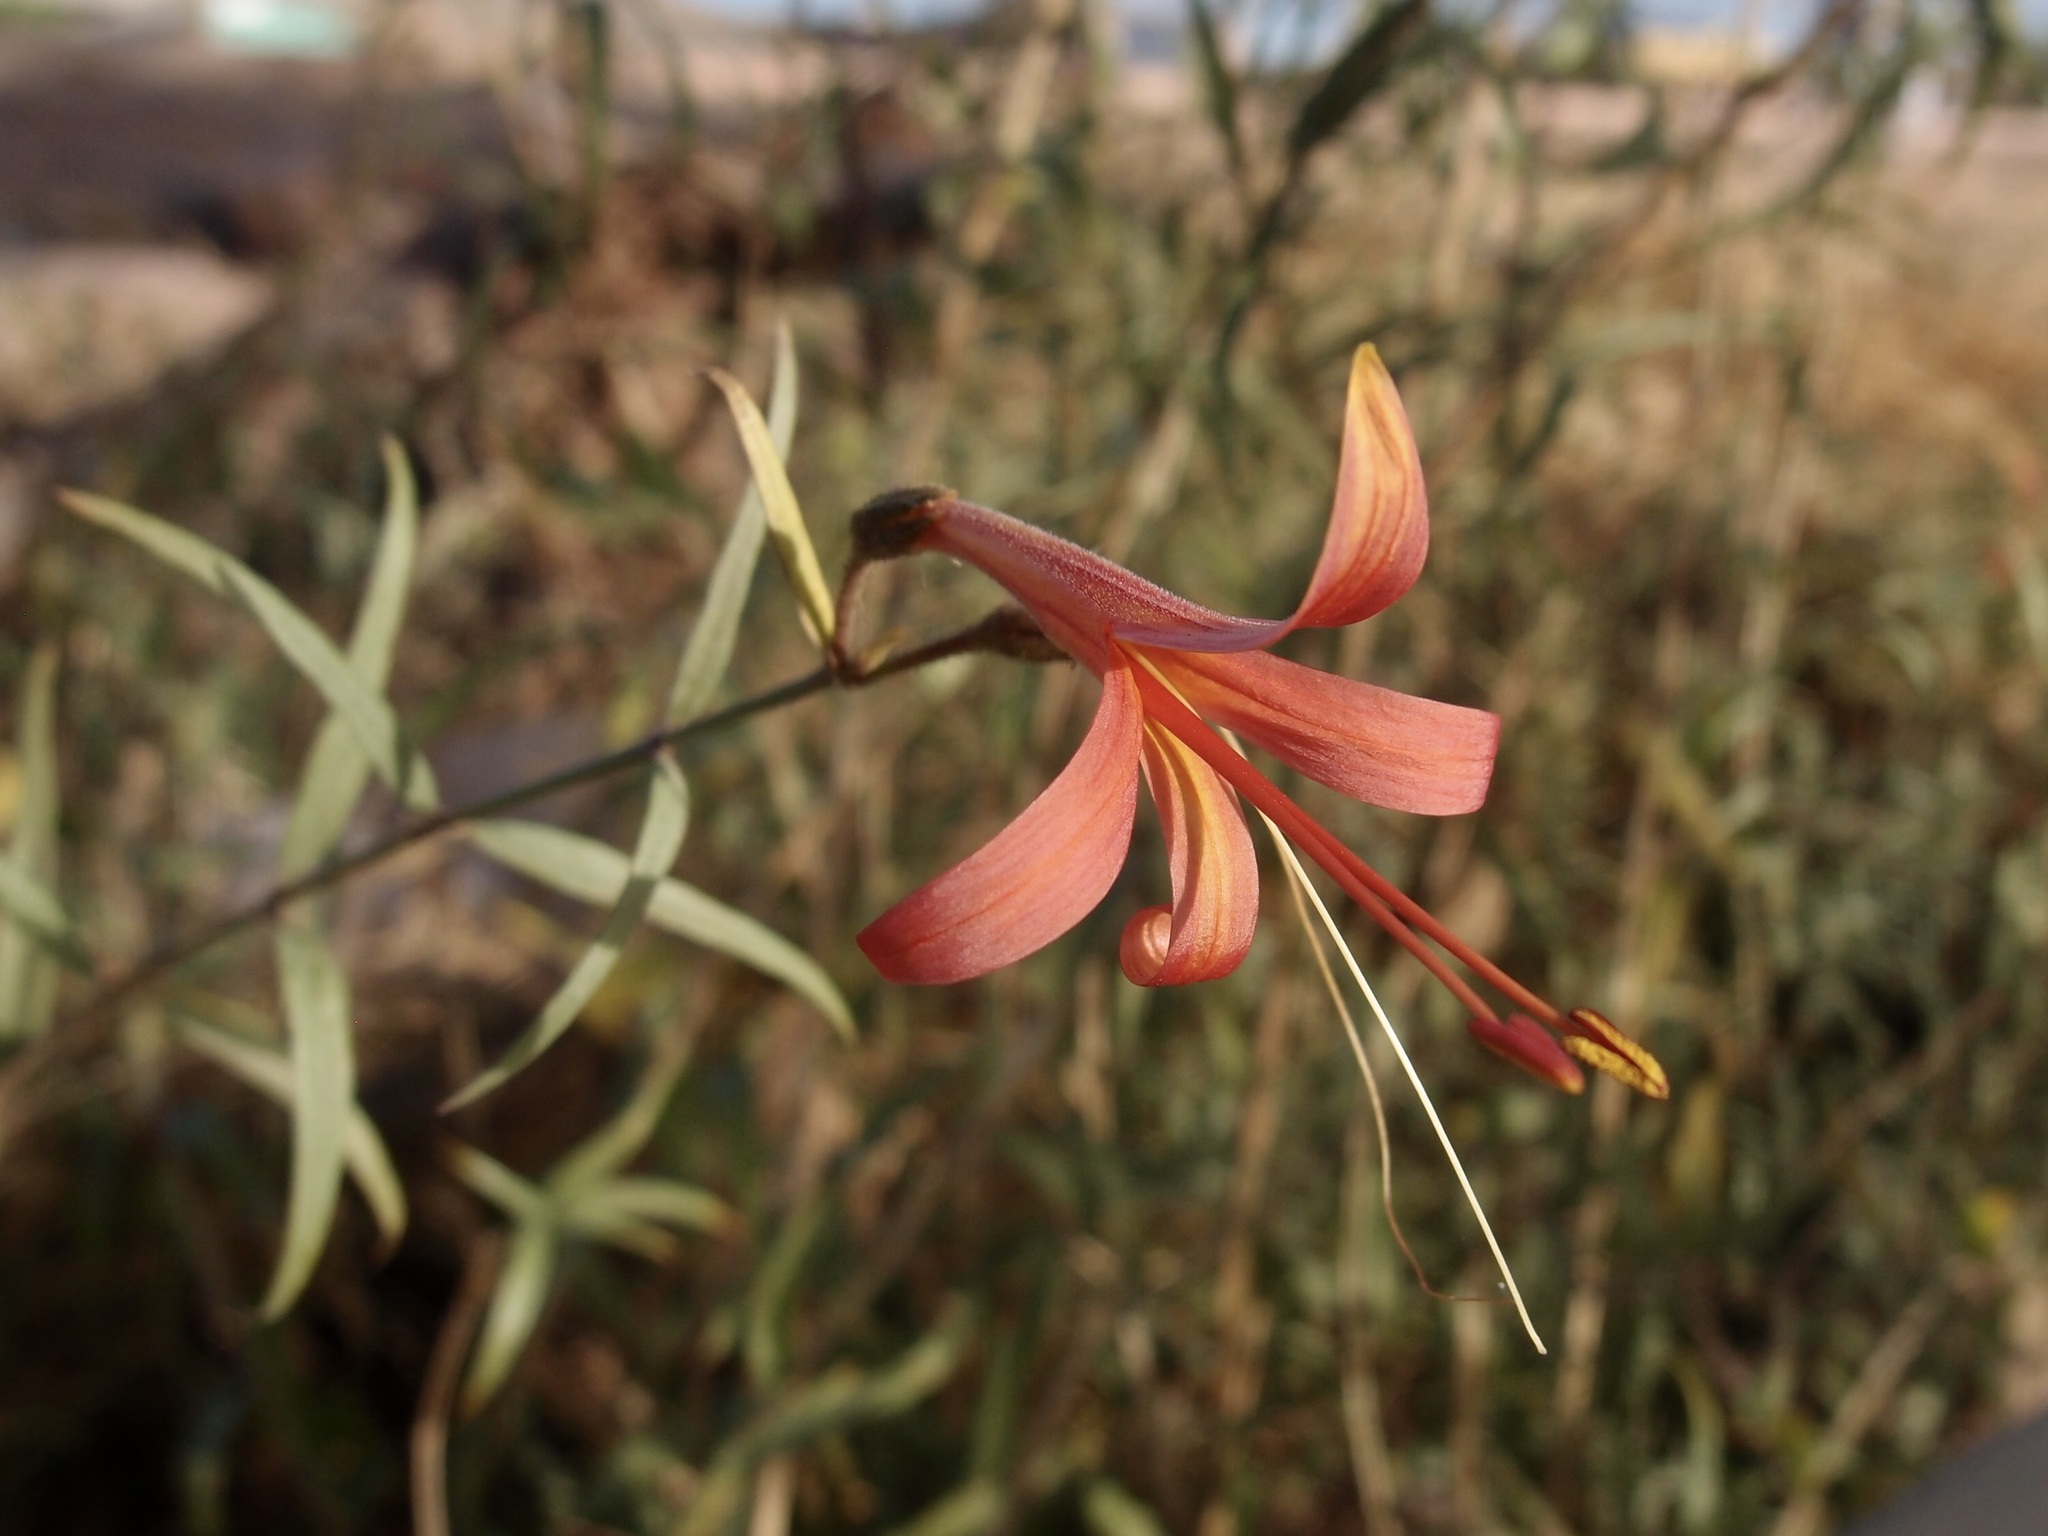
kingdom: Plantae
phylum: Tracheophyta
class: Magnoliopsida
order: Lamiales
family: Acanthaceae
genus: Anisacanthus
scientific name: Anisacanthus thurberi
